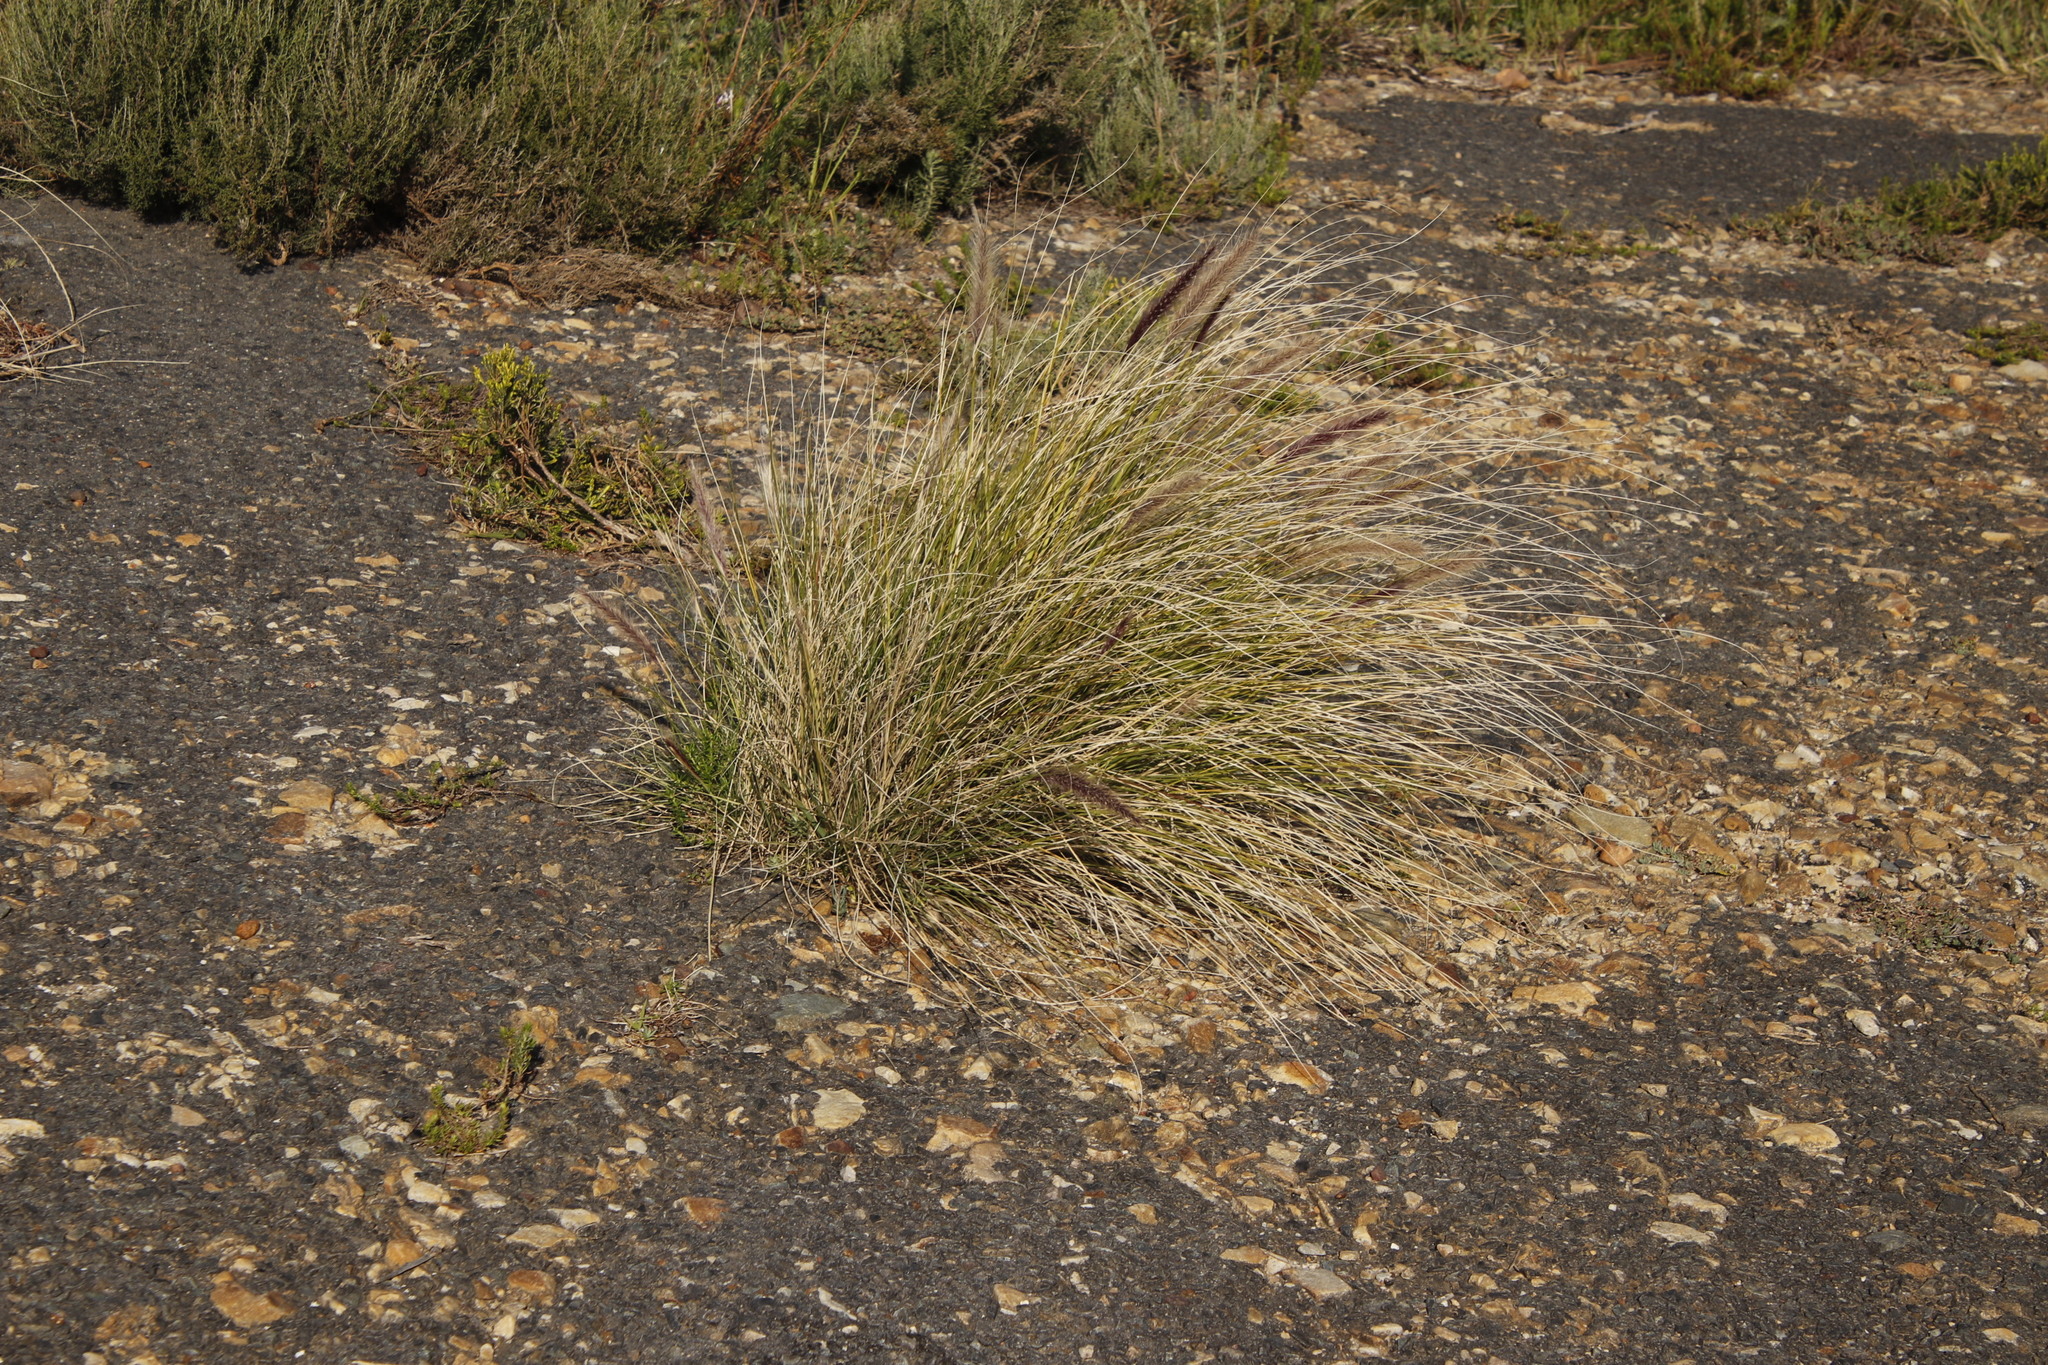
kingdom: Plantae
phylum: Tracheophyta
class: Liliopsida
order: Poales
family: Poaceae
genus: Cenchrus
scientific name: Cenchrus setaceus
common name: Crimson fountaingrass
